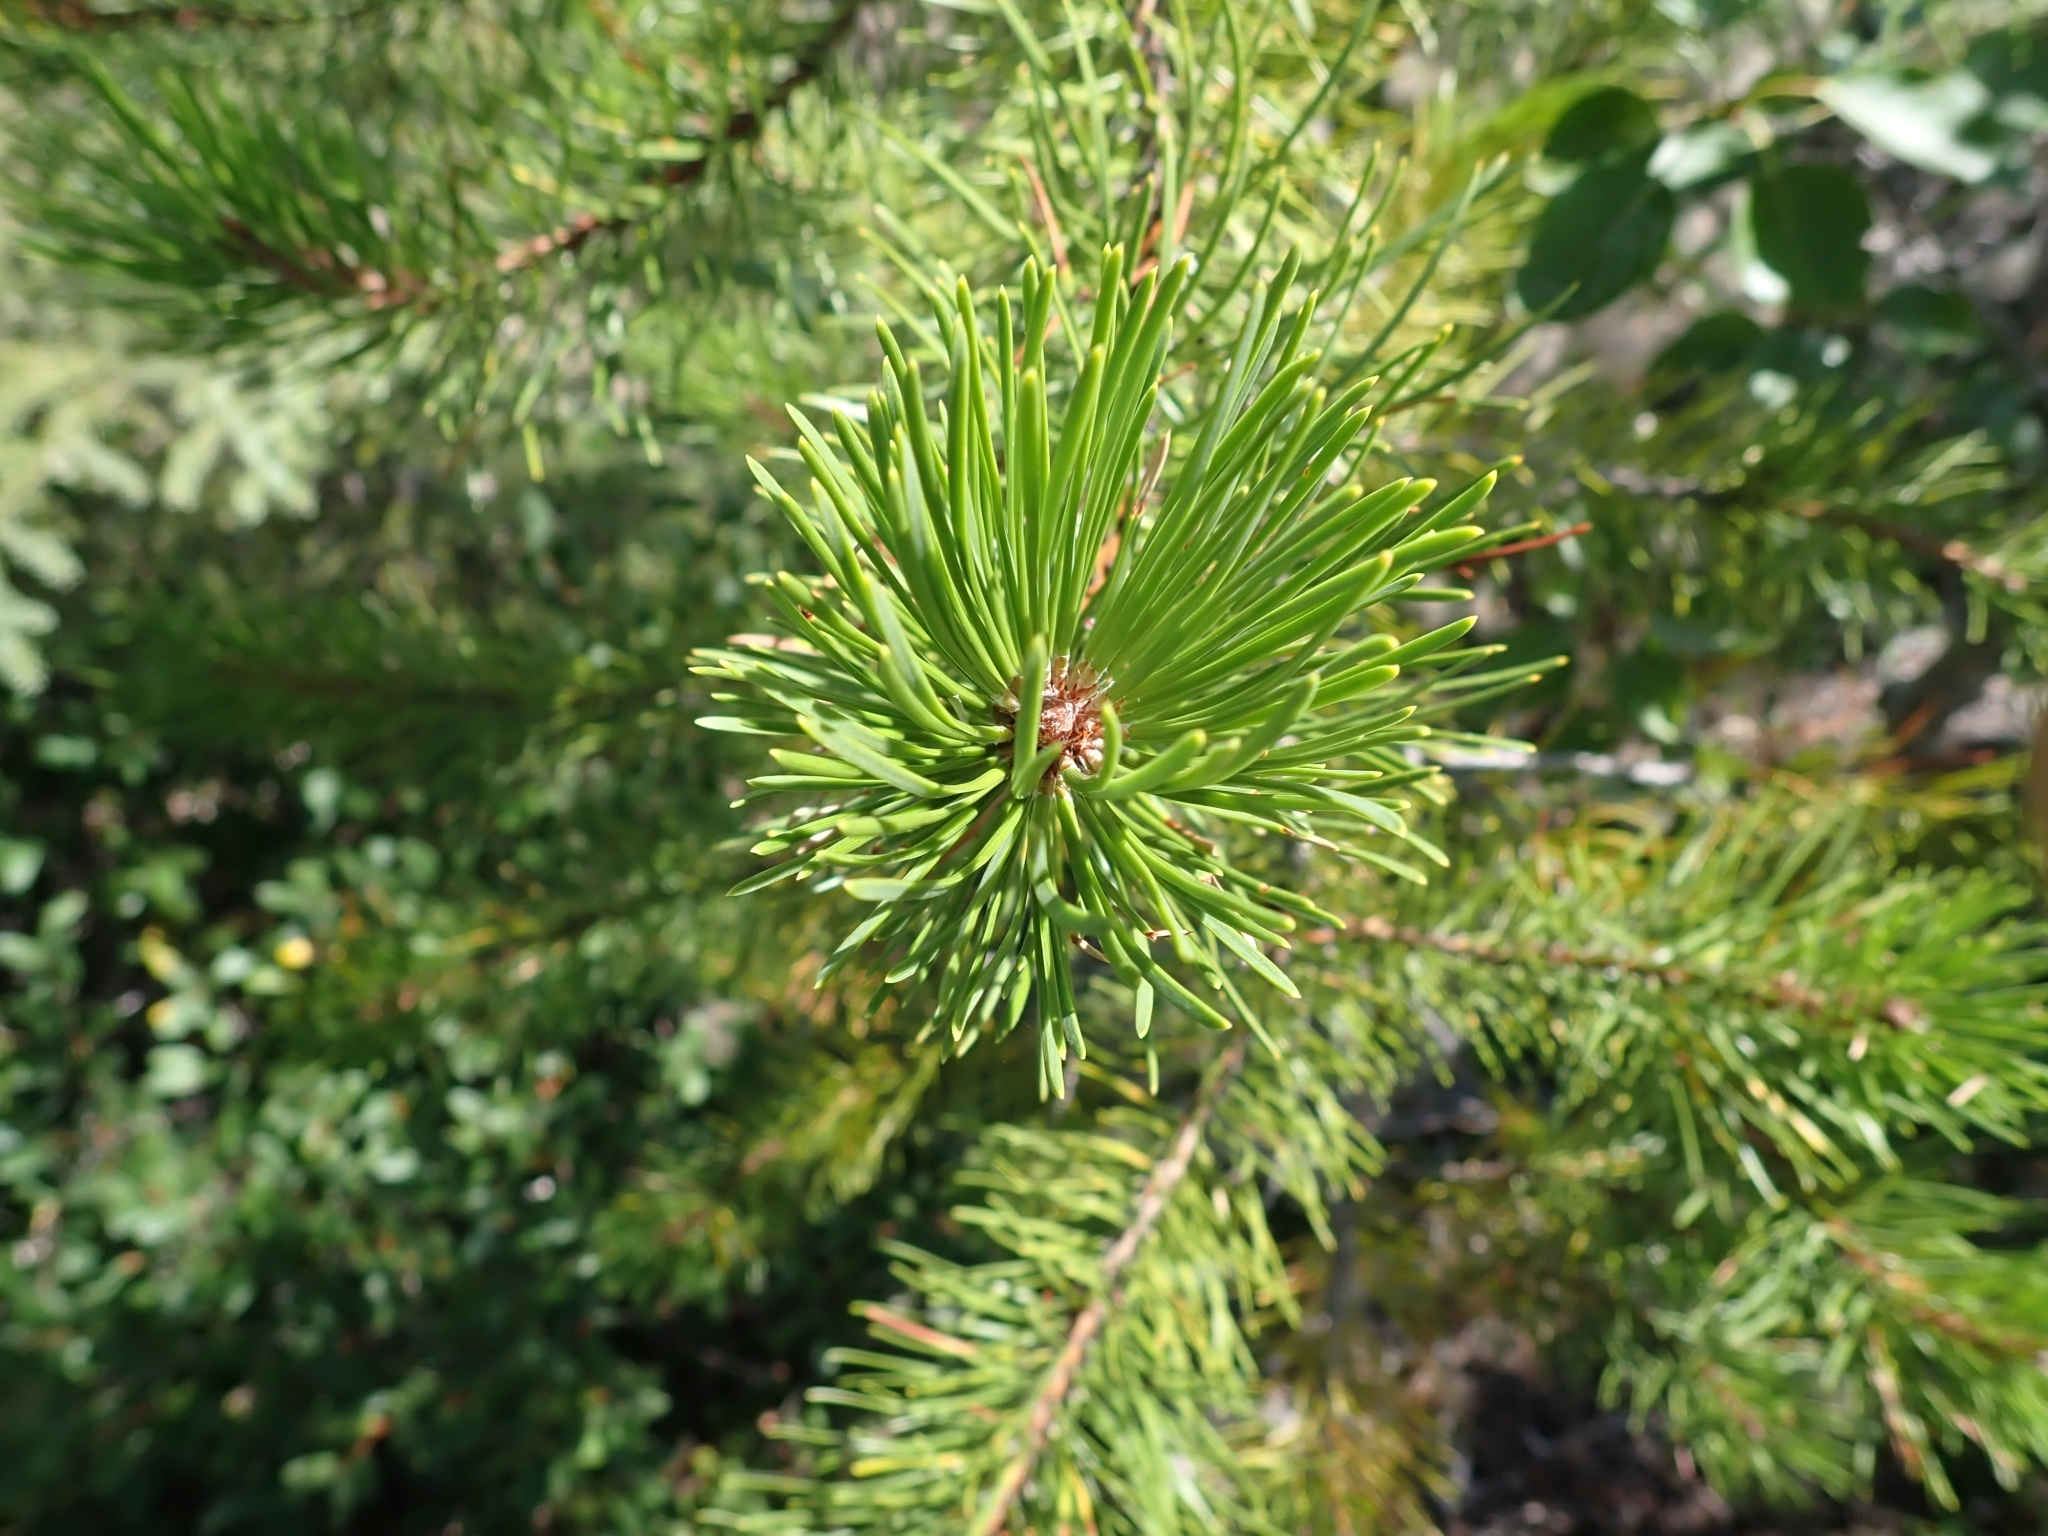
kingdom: Plantae
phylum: Tracheophyta
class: Pinopsida
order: Pinales
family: Pinaceae
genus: Pinus
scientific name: Pinus contorta
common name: Lodgepole pine
